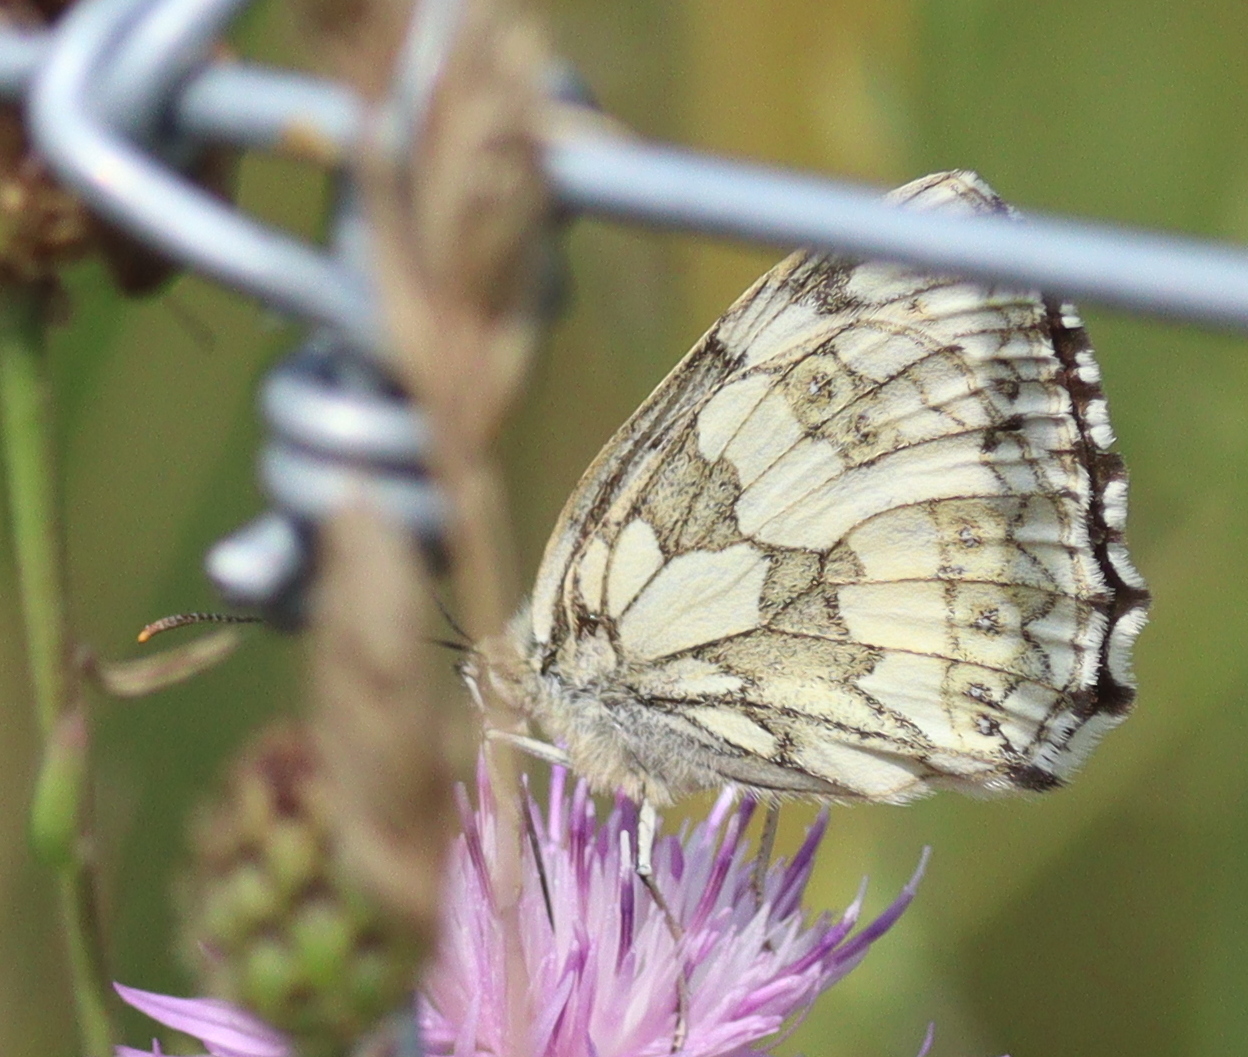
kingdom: Animalia
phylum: Arthropoda
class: Insecta
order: Lepidoptera
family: Nymphalidae
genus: Melanargia
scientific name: Melanargia galathea
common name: Marbled white
